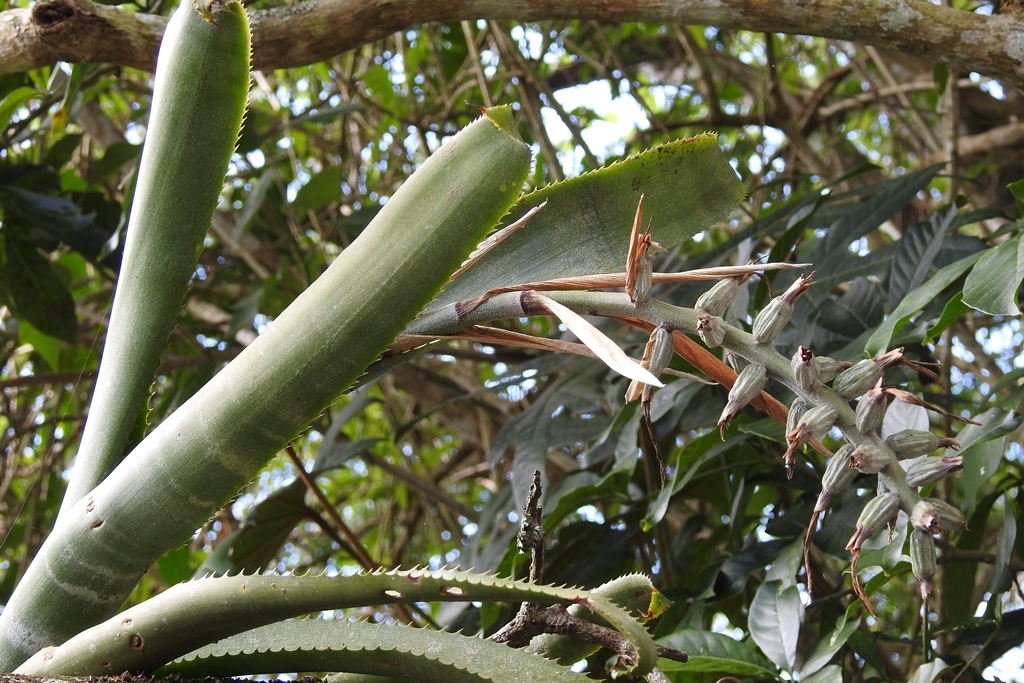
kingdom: Plantae
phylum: Tracheophyta
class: Liliopsida
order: Poales
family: Bromeliaceae
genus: Billbergia
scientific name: Billbergia pallidiflora
